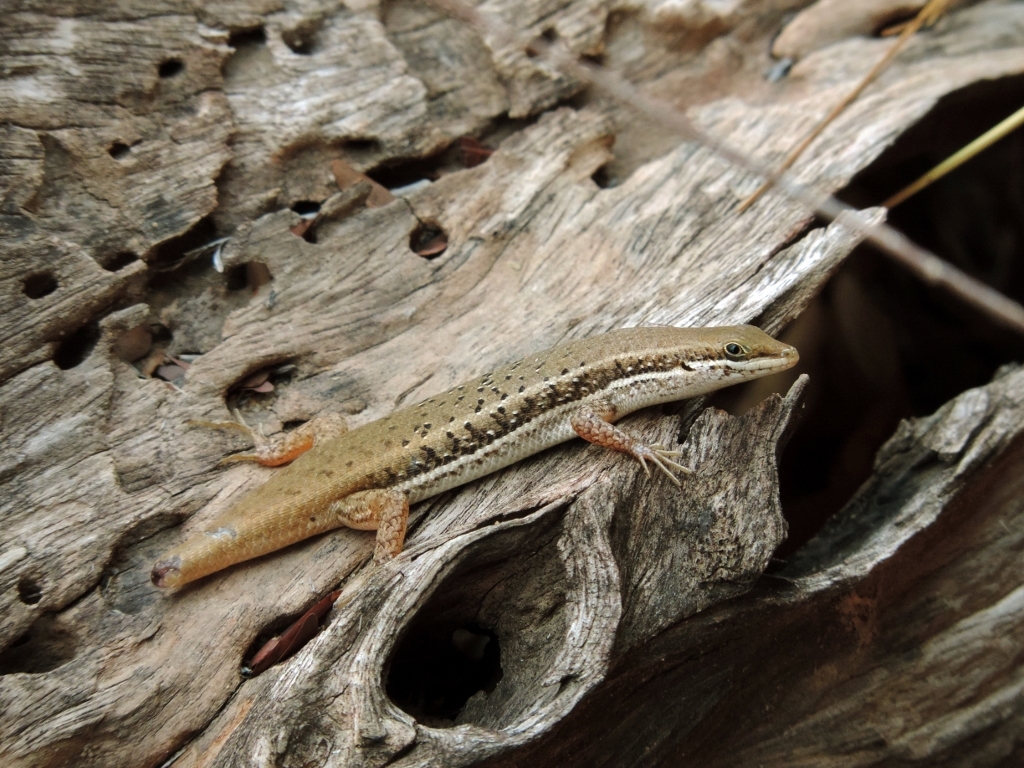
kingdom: Animalia
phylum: Chordata
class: Squamata
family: Scincidae
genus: Trachylepis
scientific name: Trachylepis varia
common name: Eastern variable skink
